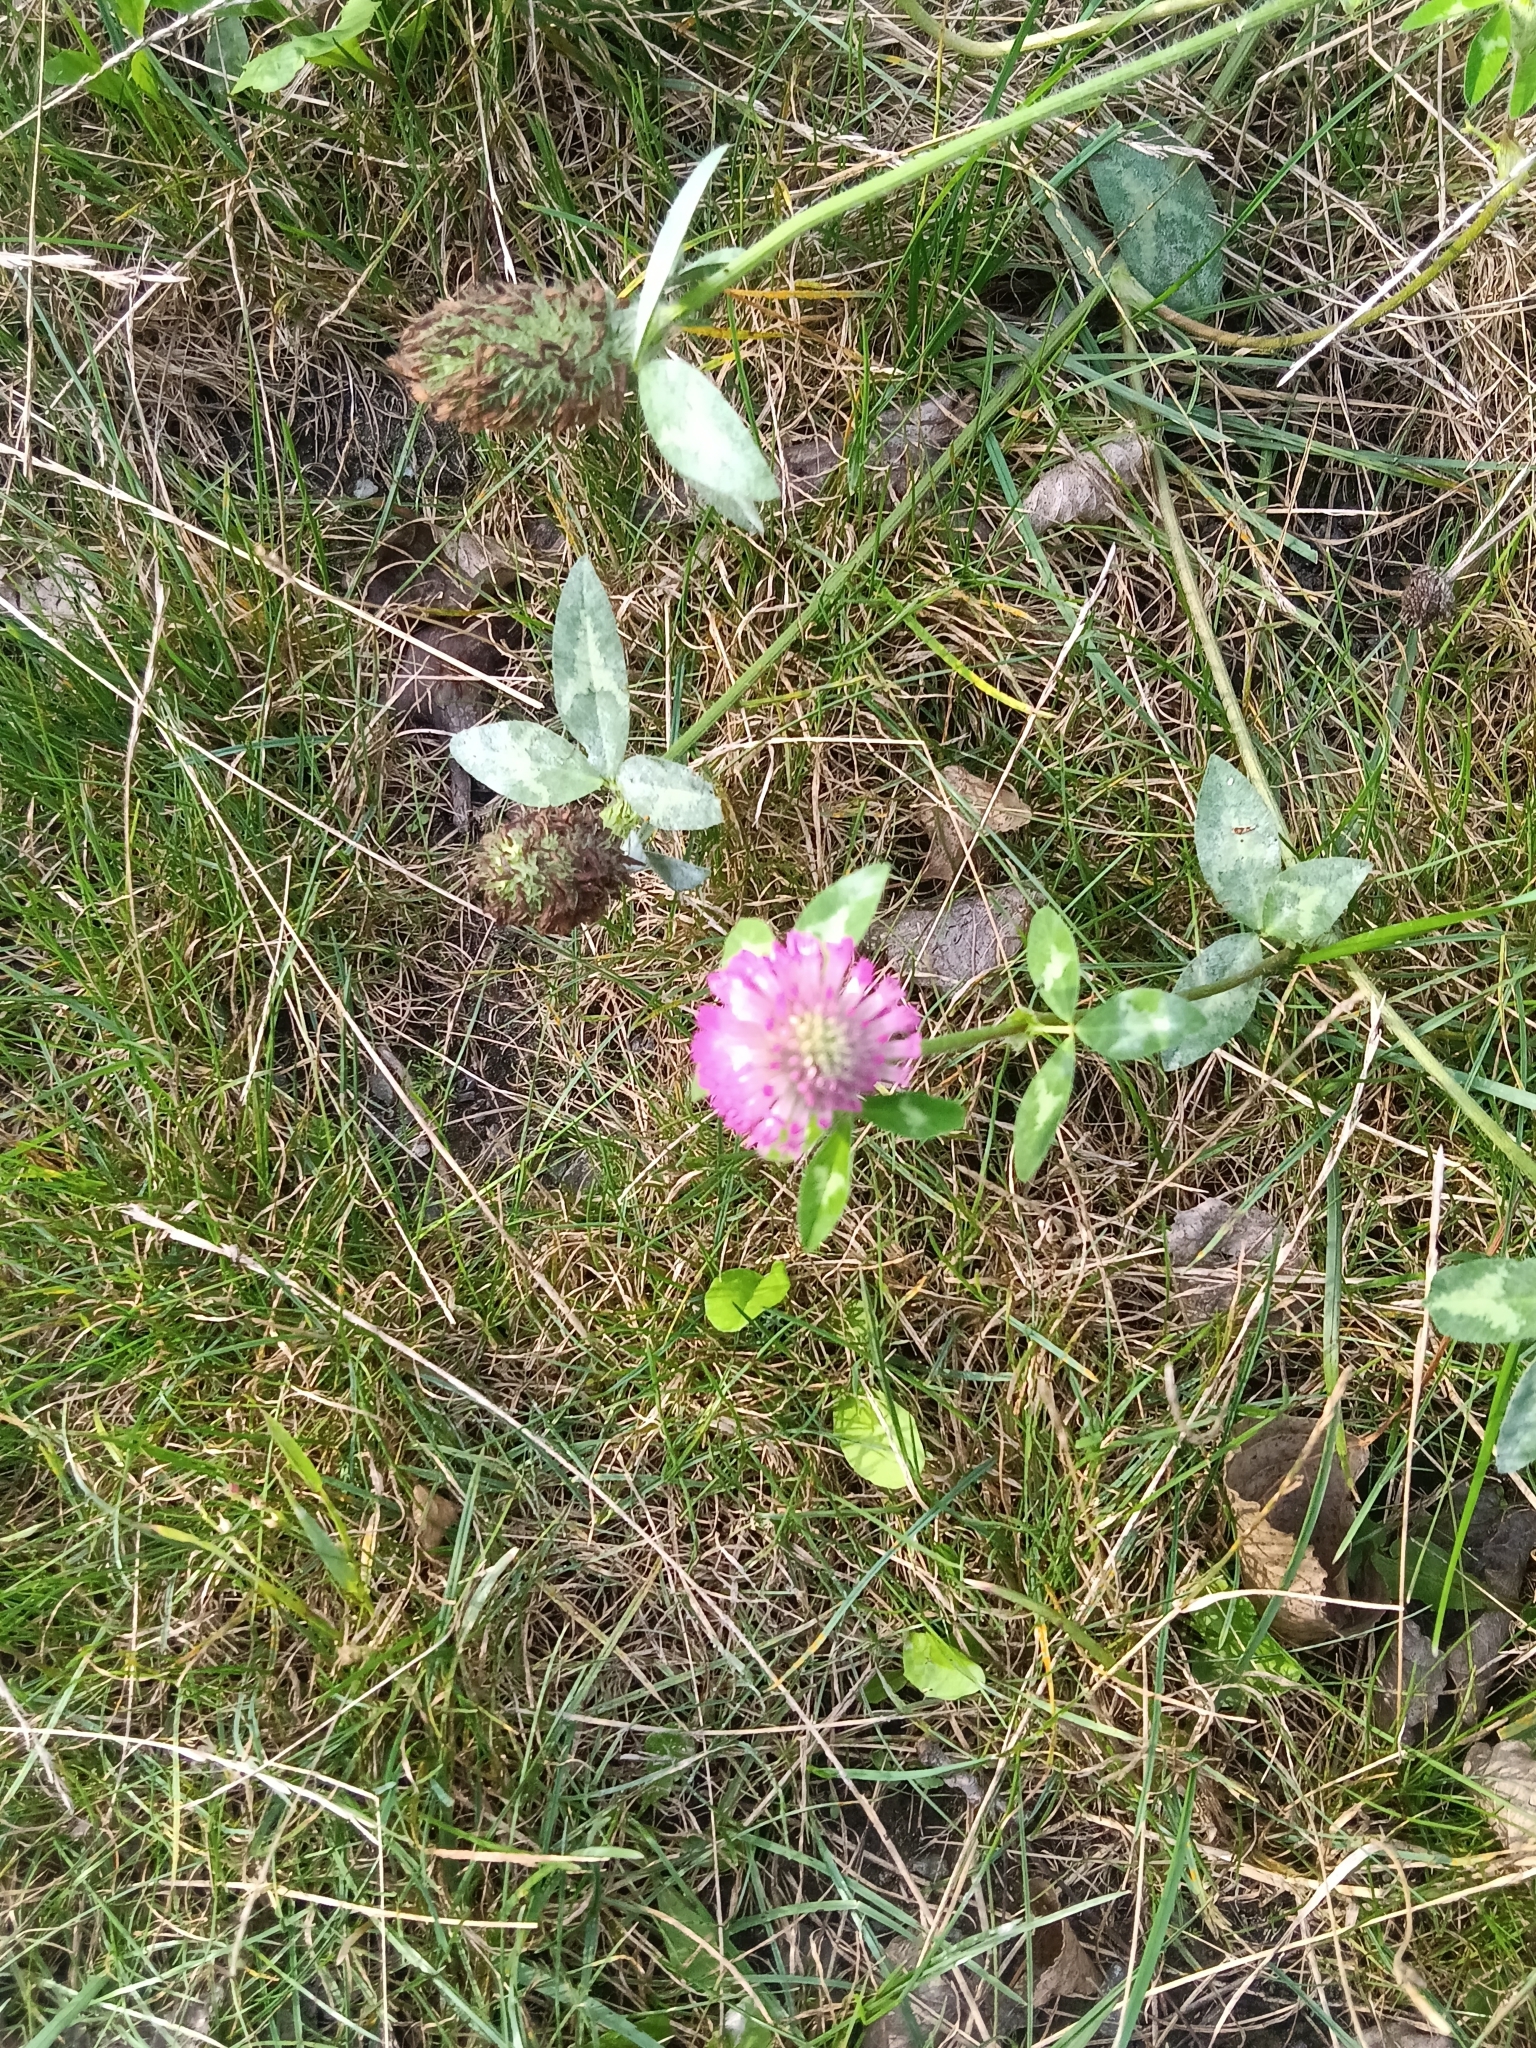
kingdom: Plantae
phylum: Tracheophyta
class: Magnoliopsida
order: Fabales
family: Fabaceae
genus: Trifolium
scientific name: Trifolium pratense
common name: Red clover
